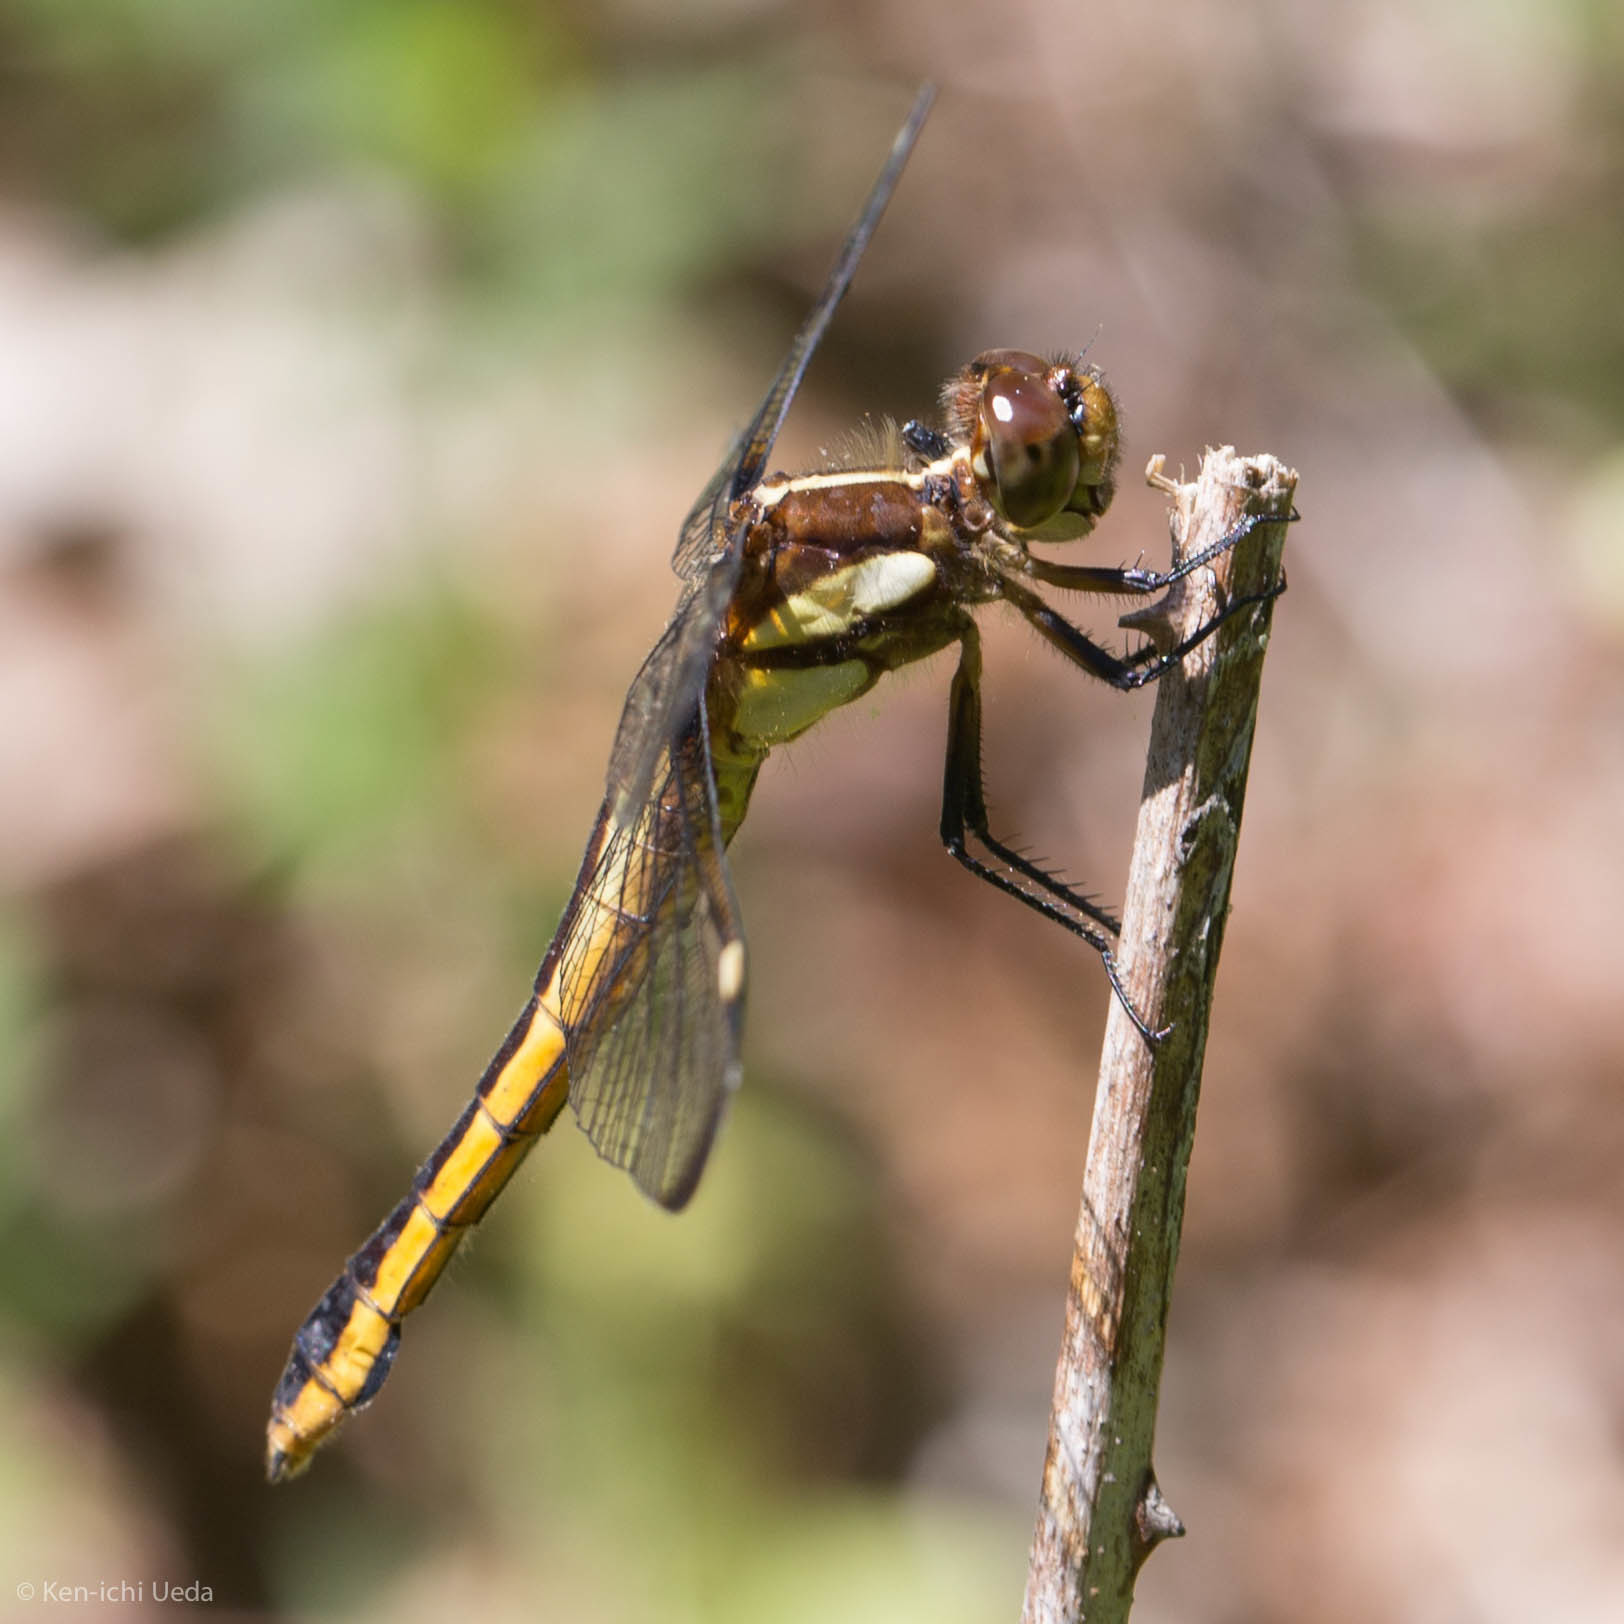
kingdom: Animalia
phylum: Arthropoda
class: Insecta
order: Odonata
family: Libellulidae
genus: Libellula
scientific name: Libellula cyanea
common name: Spangled skimmer
